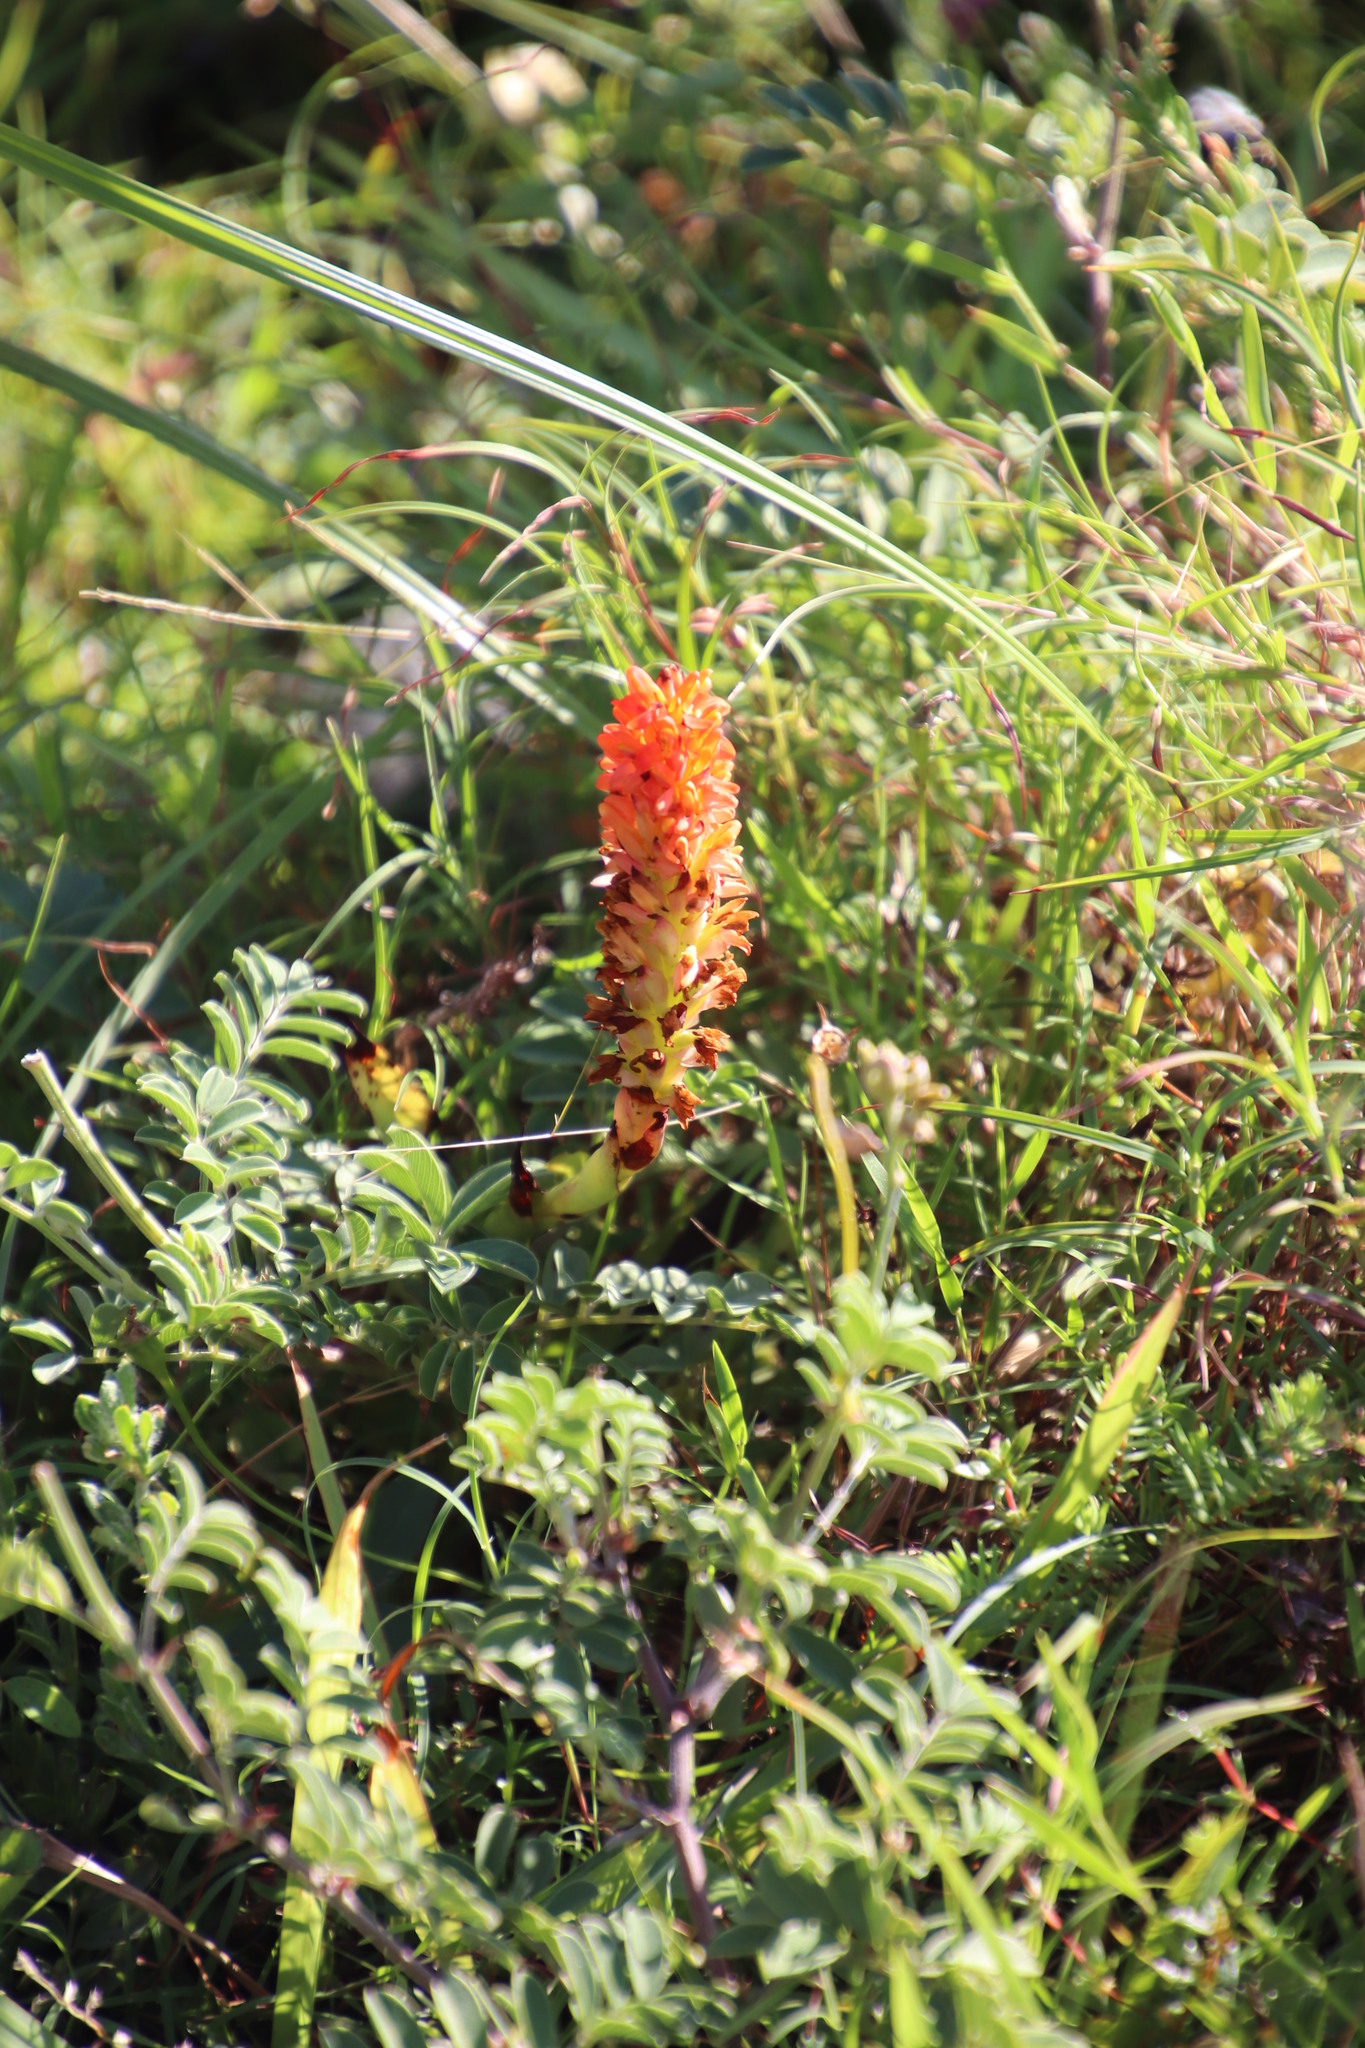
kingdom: Plantae
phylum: Tracheophyta
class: Liliopsida
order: Asparagales
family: Orchidaceae
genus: Disa
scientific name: Disa polygonoides
